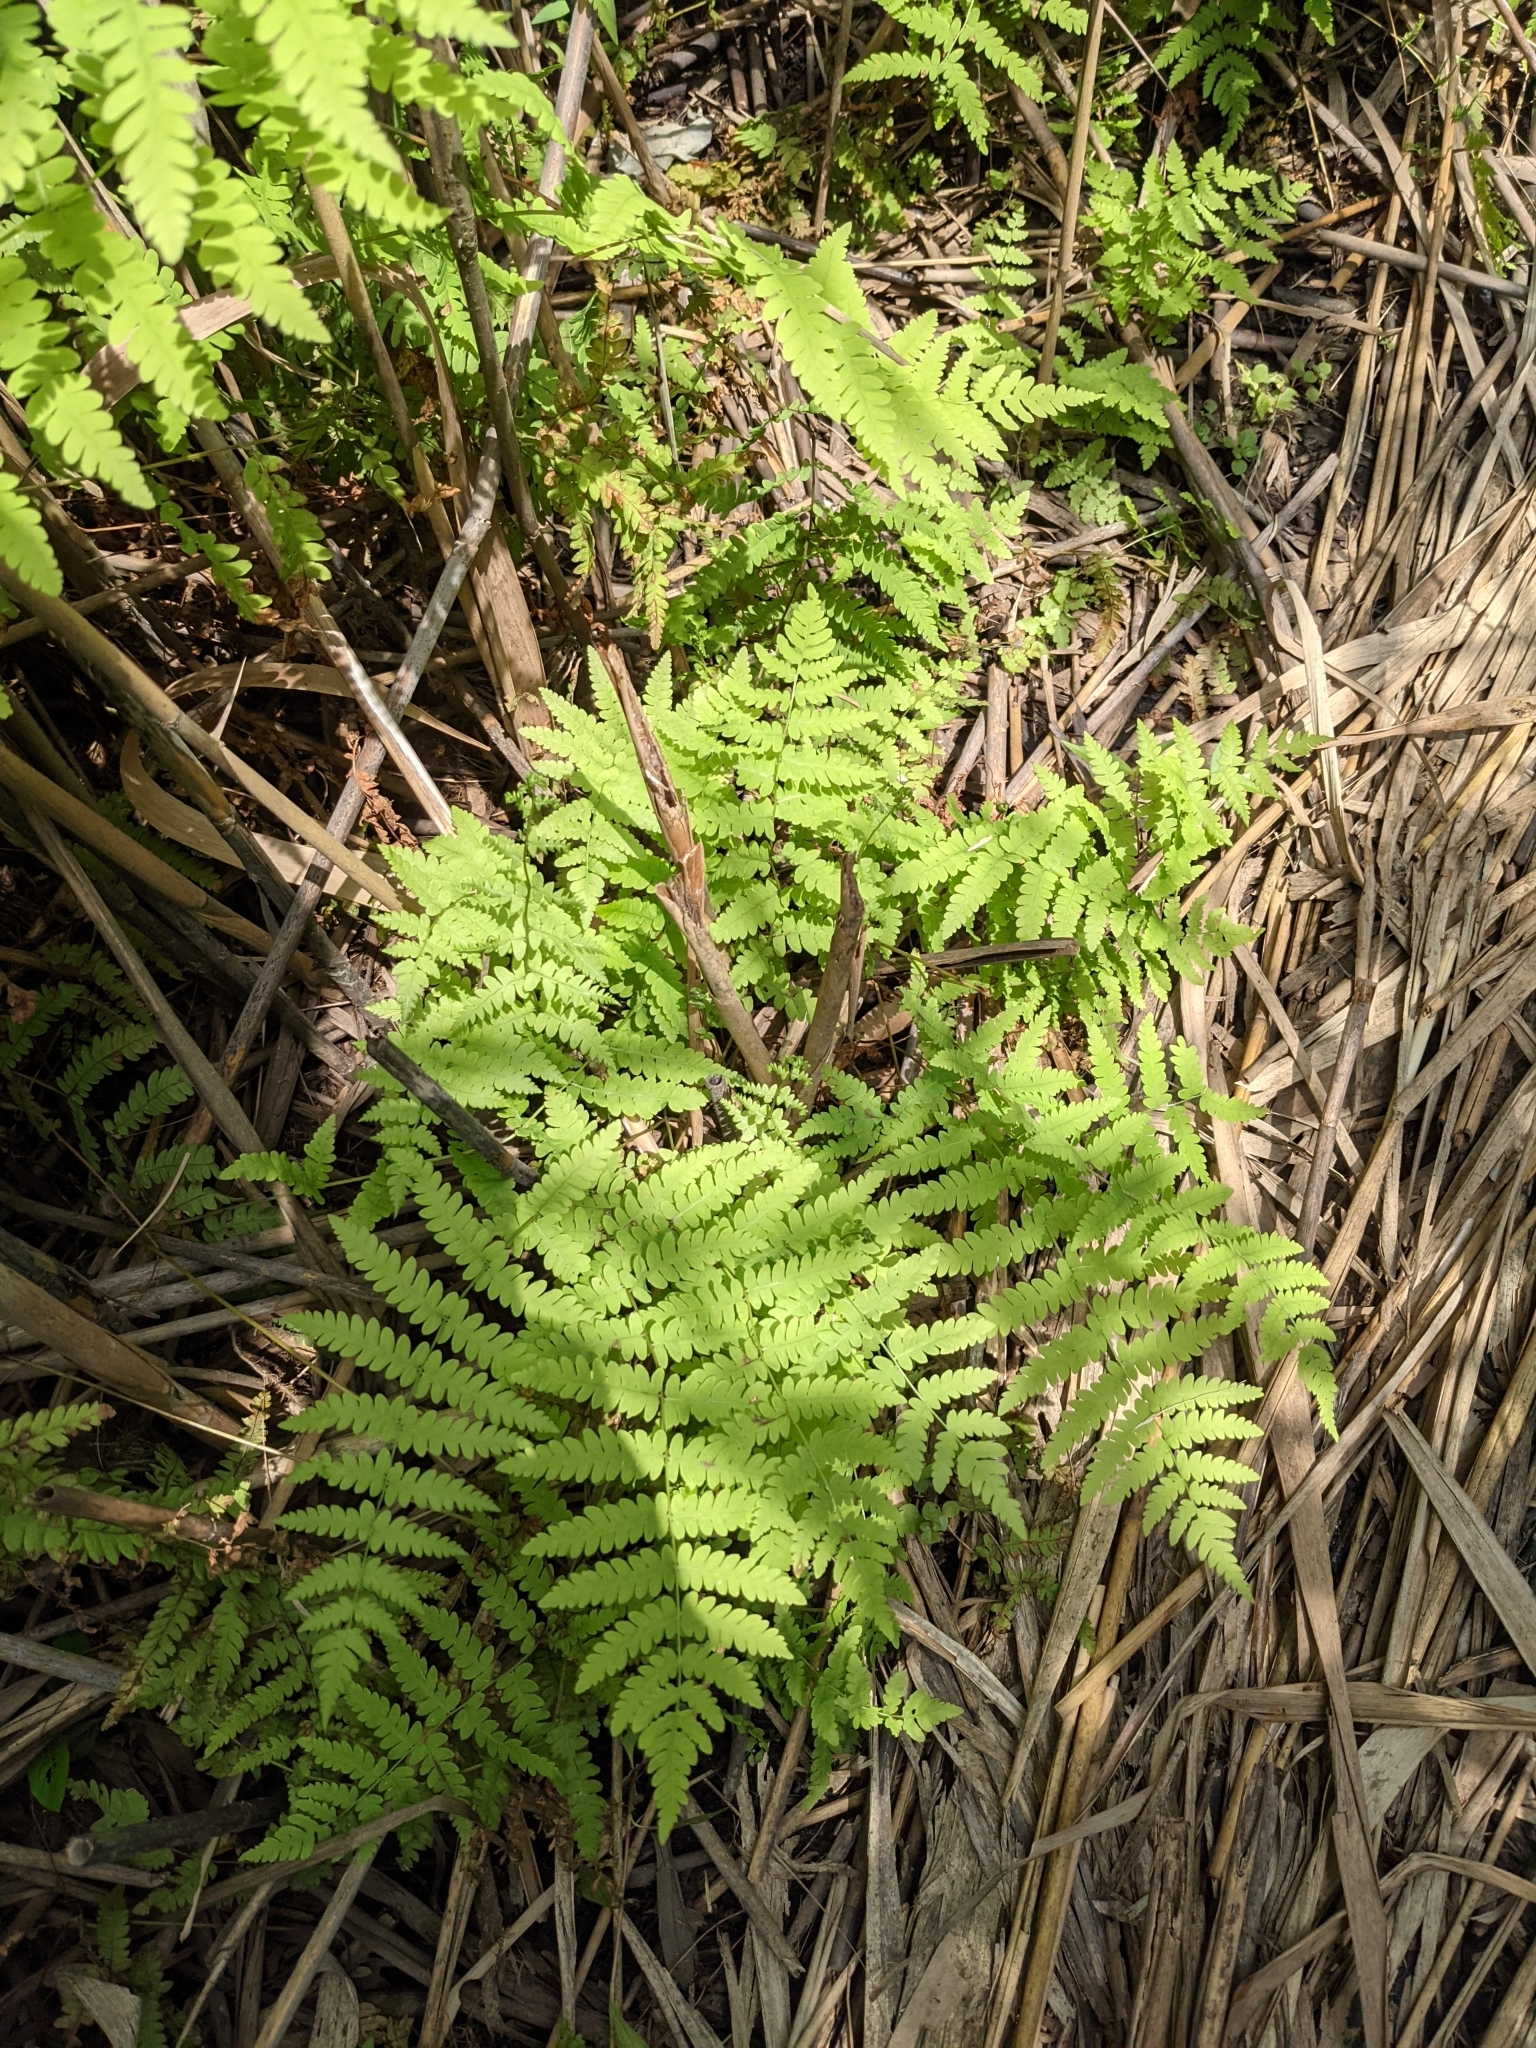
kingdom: Plantae
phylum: Tracheophyta
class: Polypodiopsida
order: Polypodiales
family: Thelypteridaceae
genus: Thelypteris
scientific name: Thelypteris palustris
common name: Marsh fern
